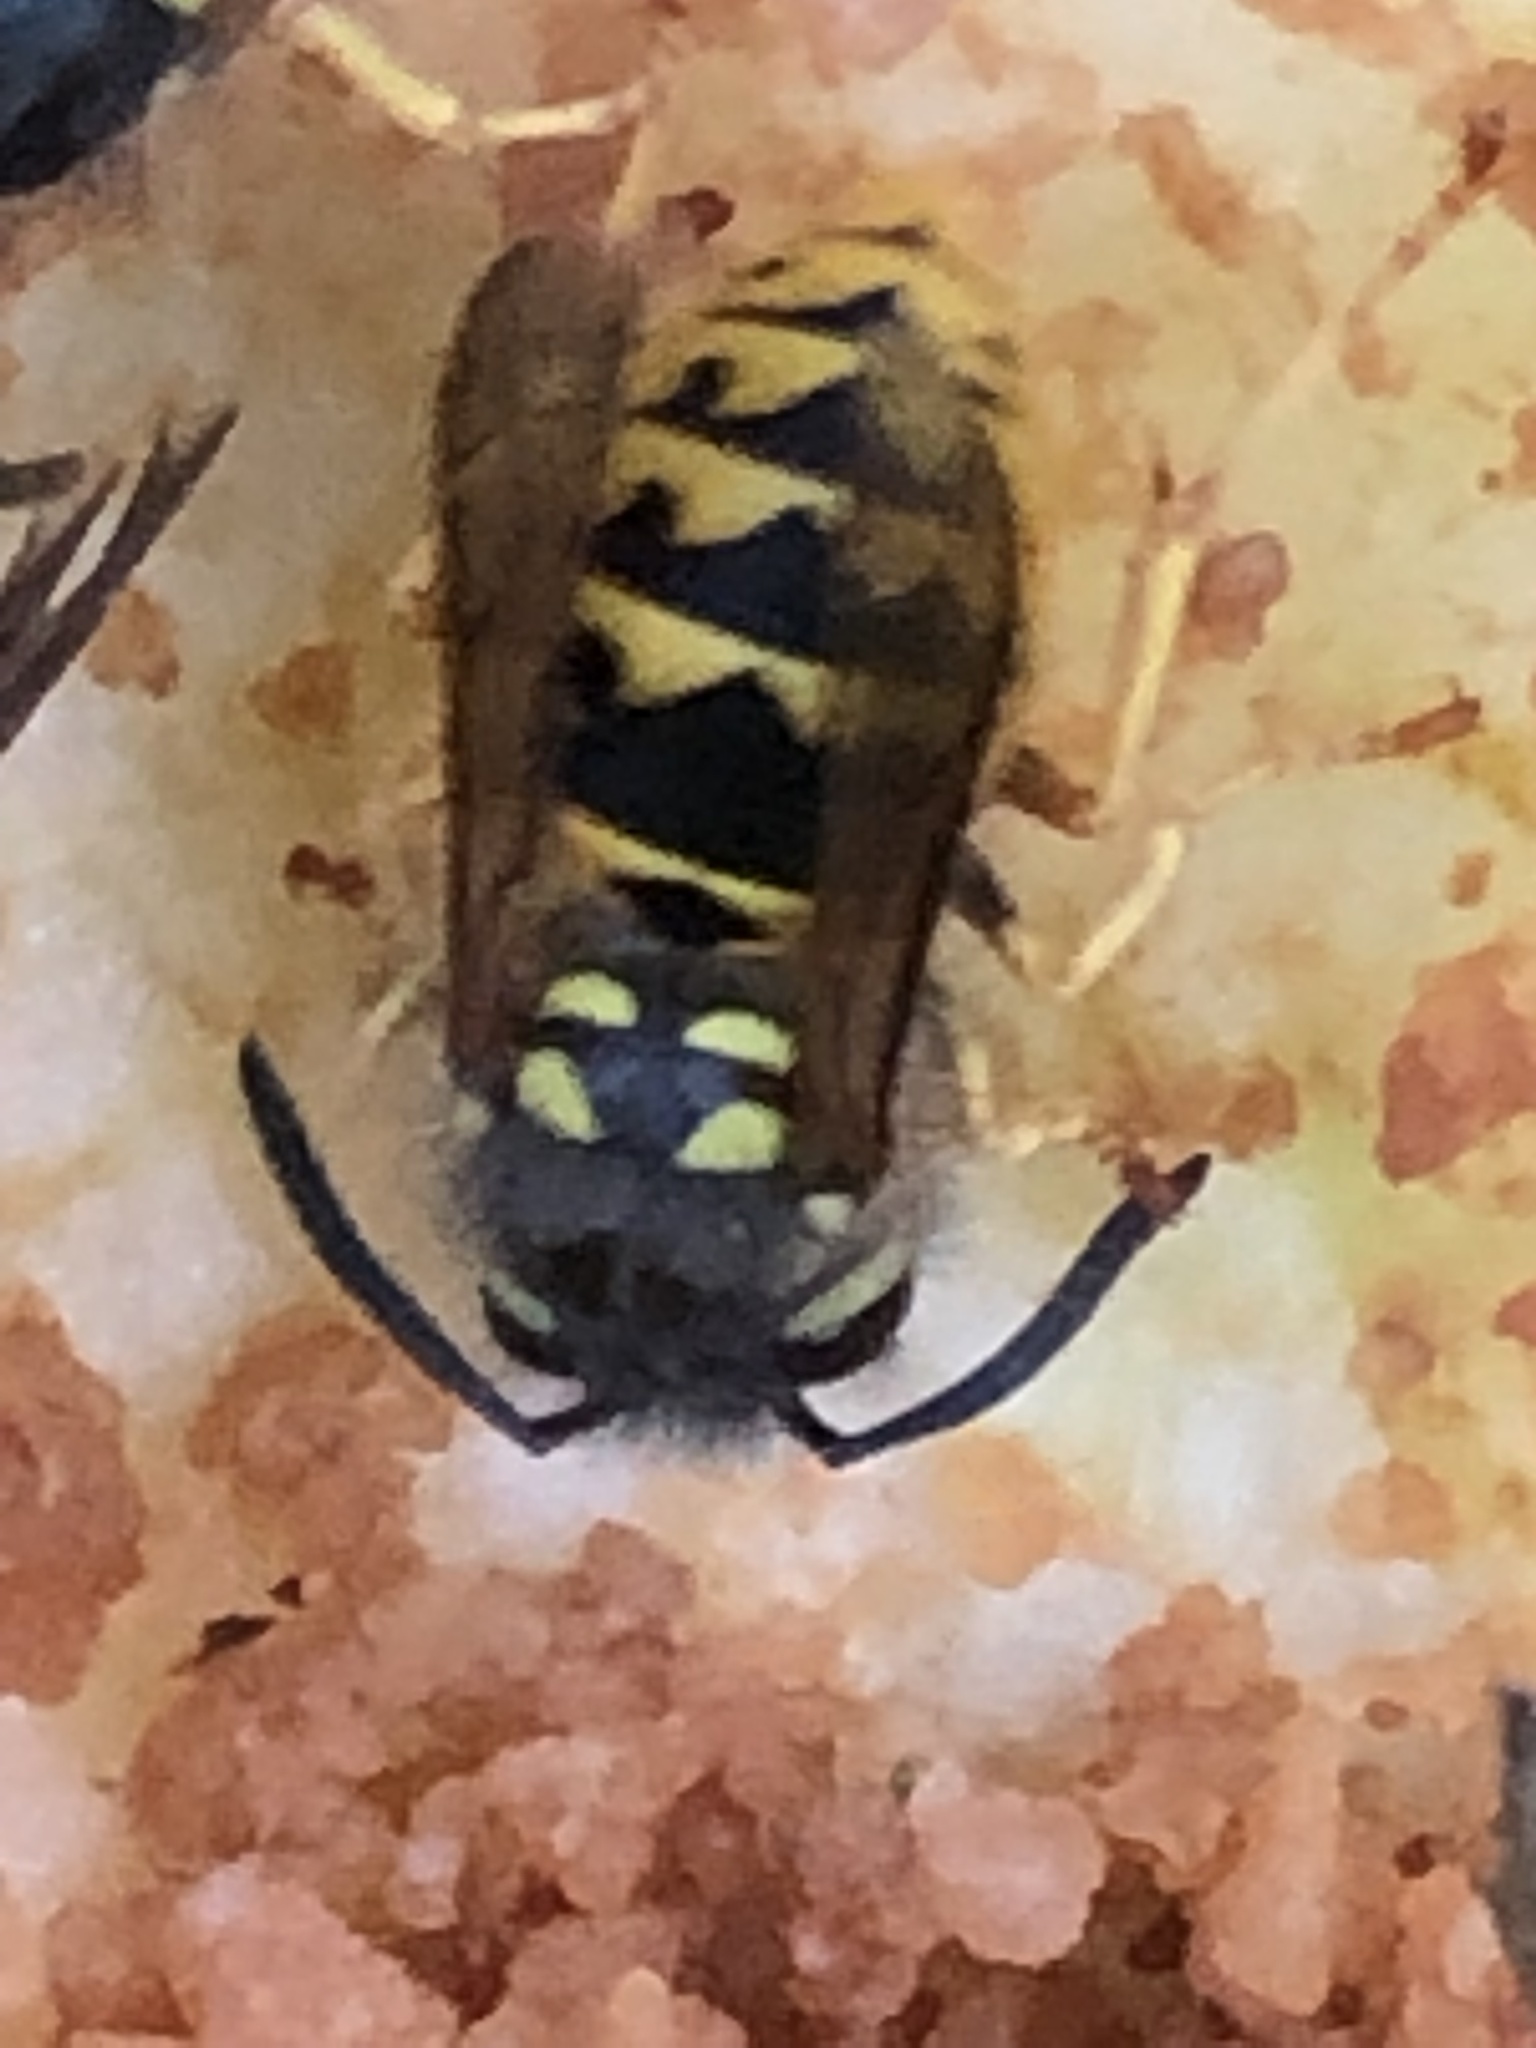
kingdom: Animalia
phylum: Arthropoda
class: Insecta
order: Hymenoptera
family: Vespidae
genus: Vespula
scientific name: Vespula germanica
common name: German wasp
